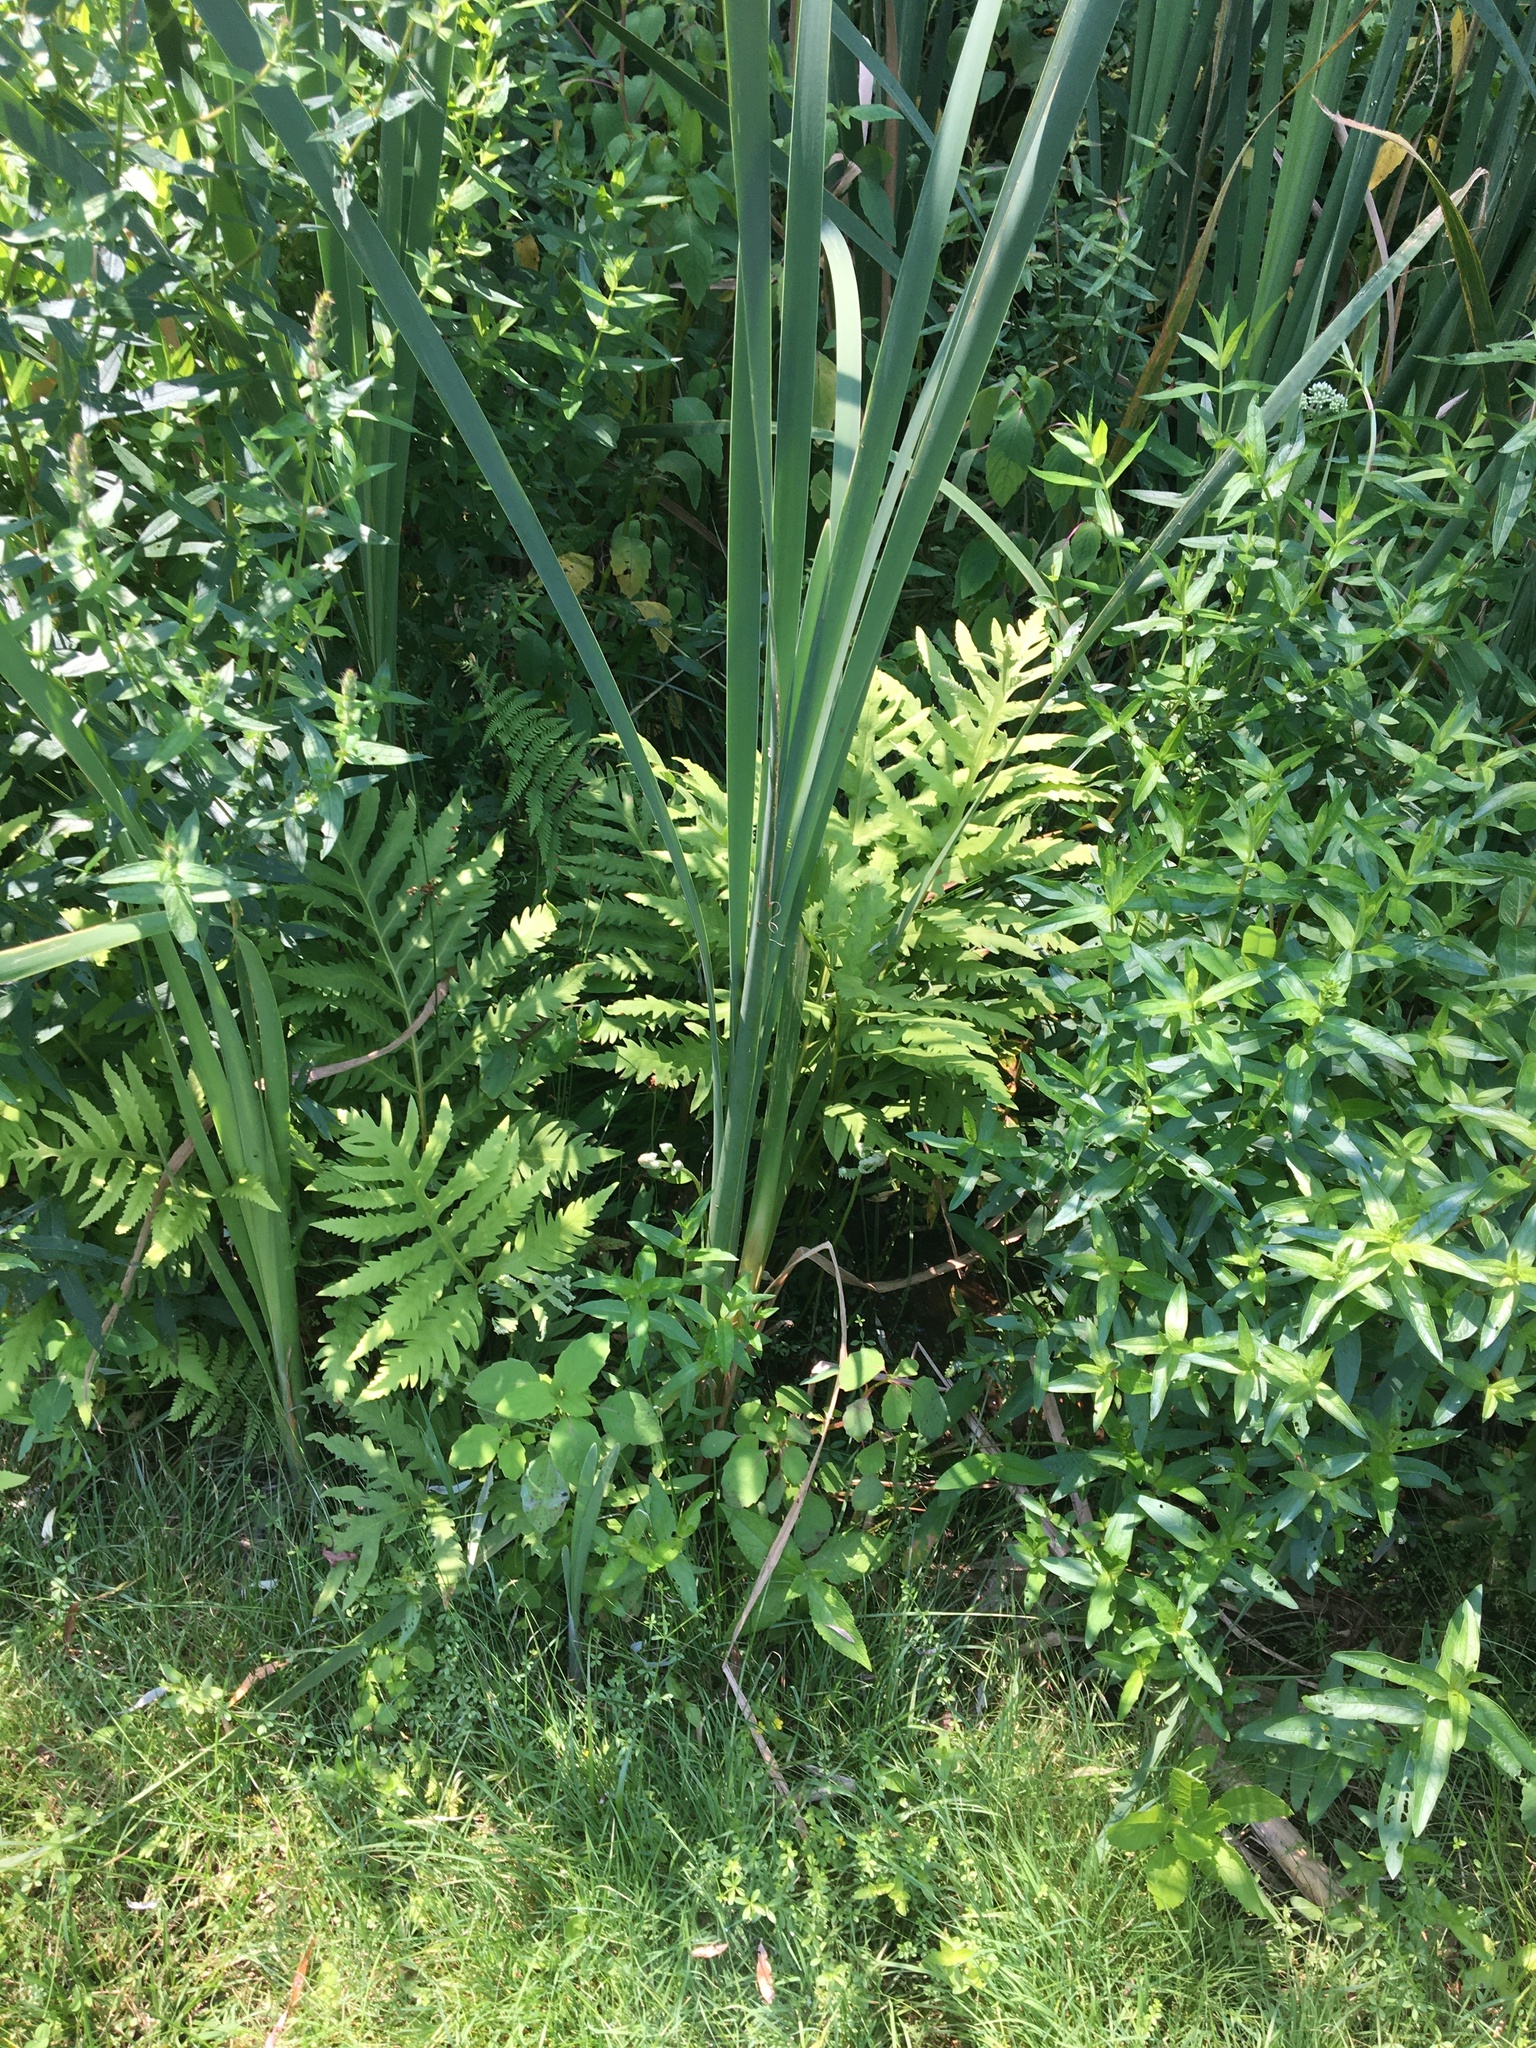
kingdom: Plantae
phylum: Tracheophyta
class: Polypodiopsida
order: Polypodiales
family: Onocleaceae
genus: Onoclea
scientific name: Onoclea sensibilis
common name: Sensitive fern
